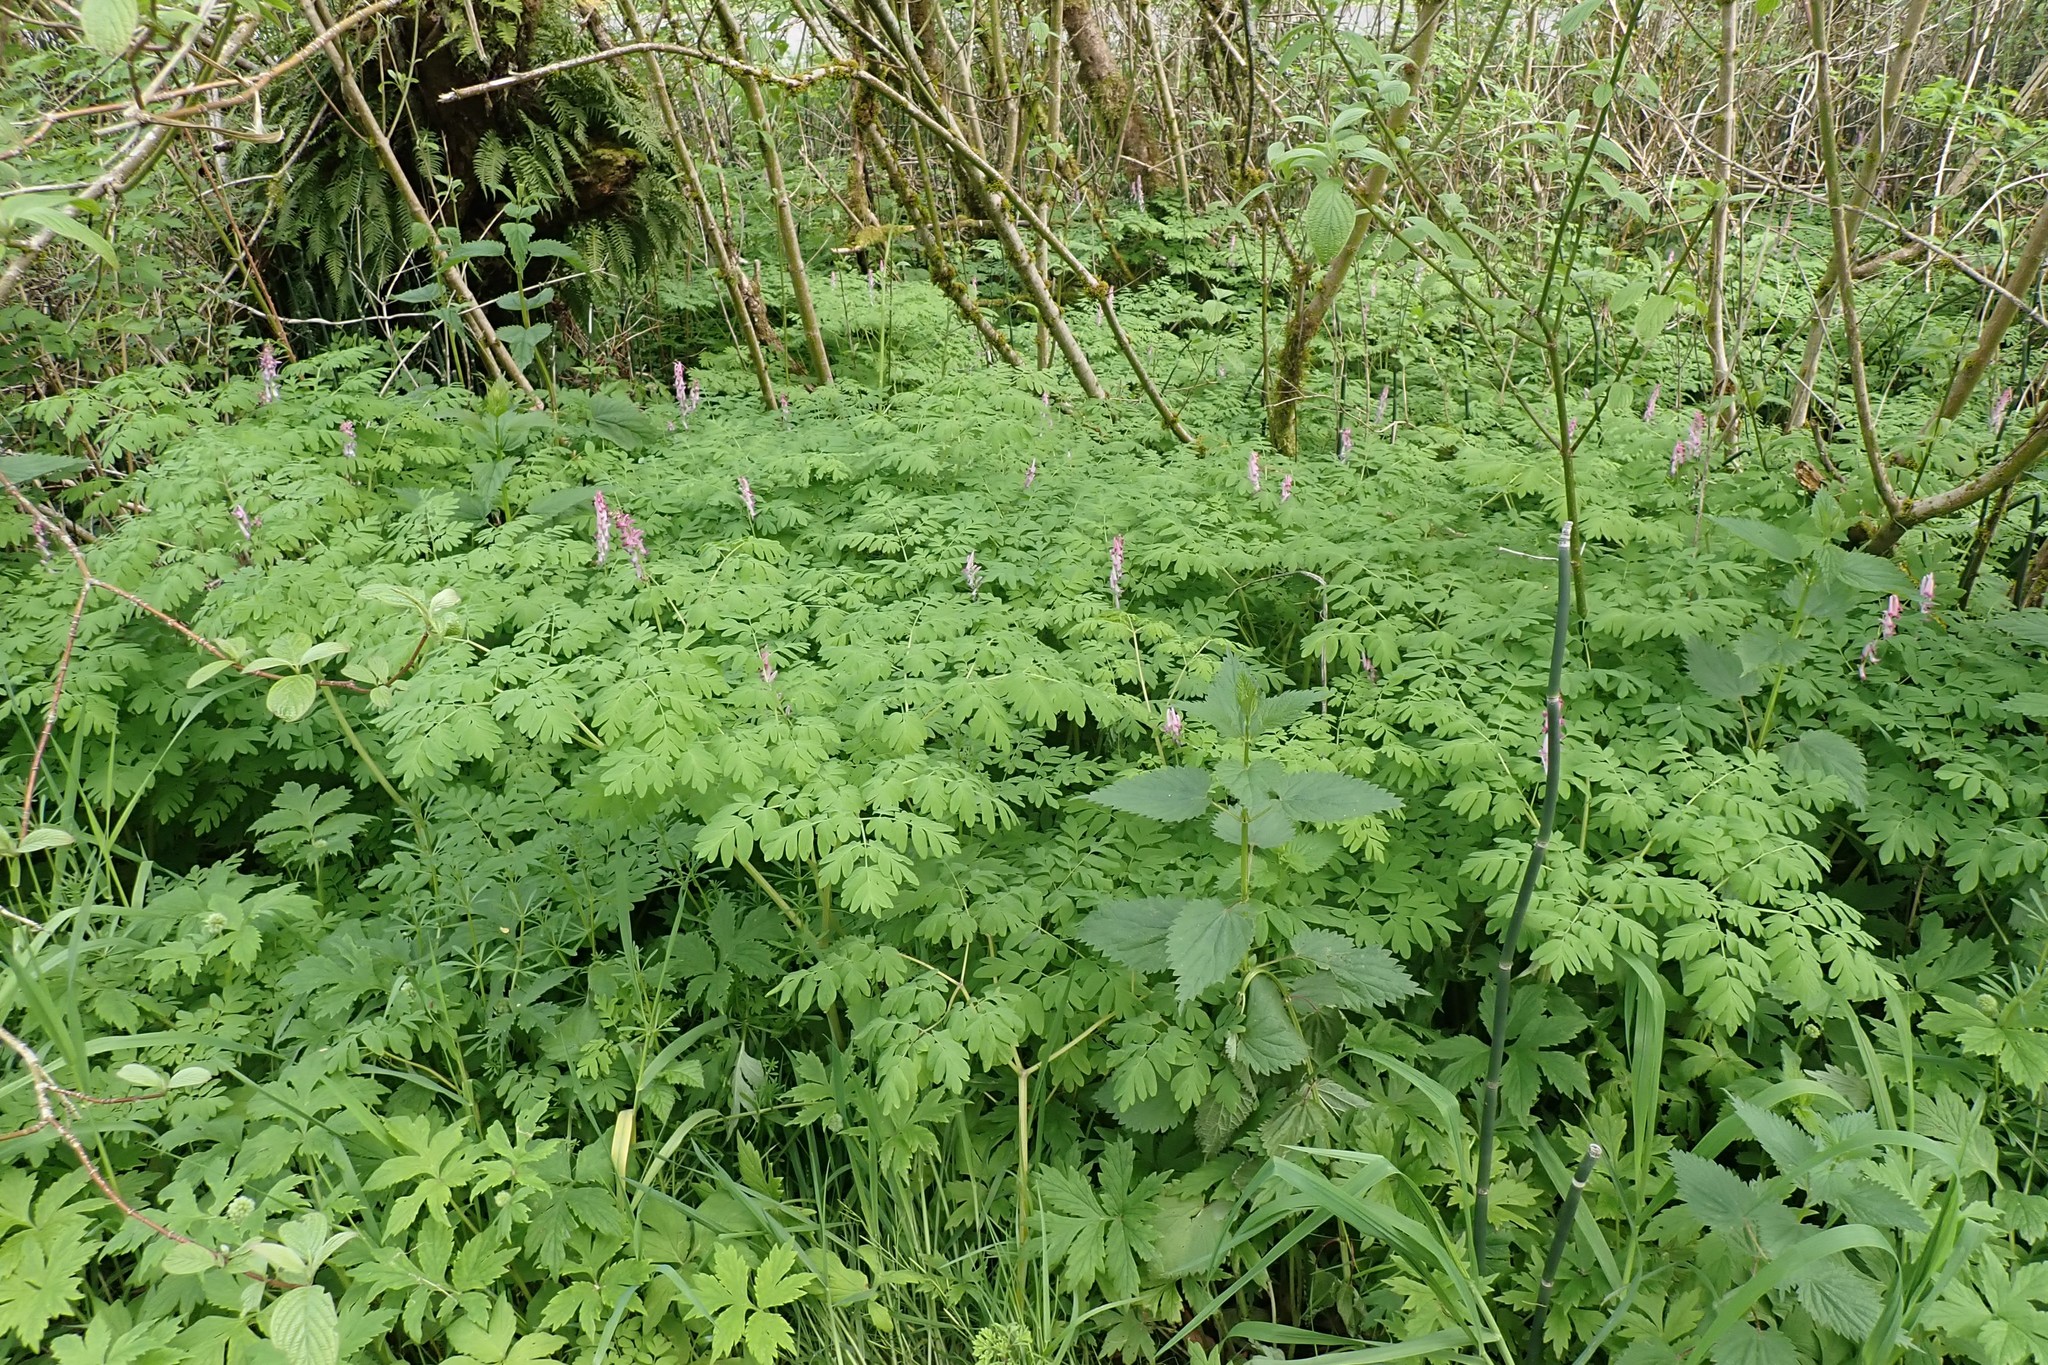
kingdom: Plantae
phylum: Tracheophyta
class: Magnoliopsida
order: Ranunculales
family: Papaveraceae
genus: Corydalis
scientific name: Corydalis scouleri
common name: Scouler's corydalis
